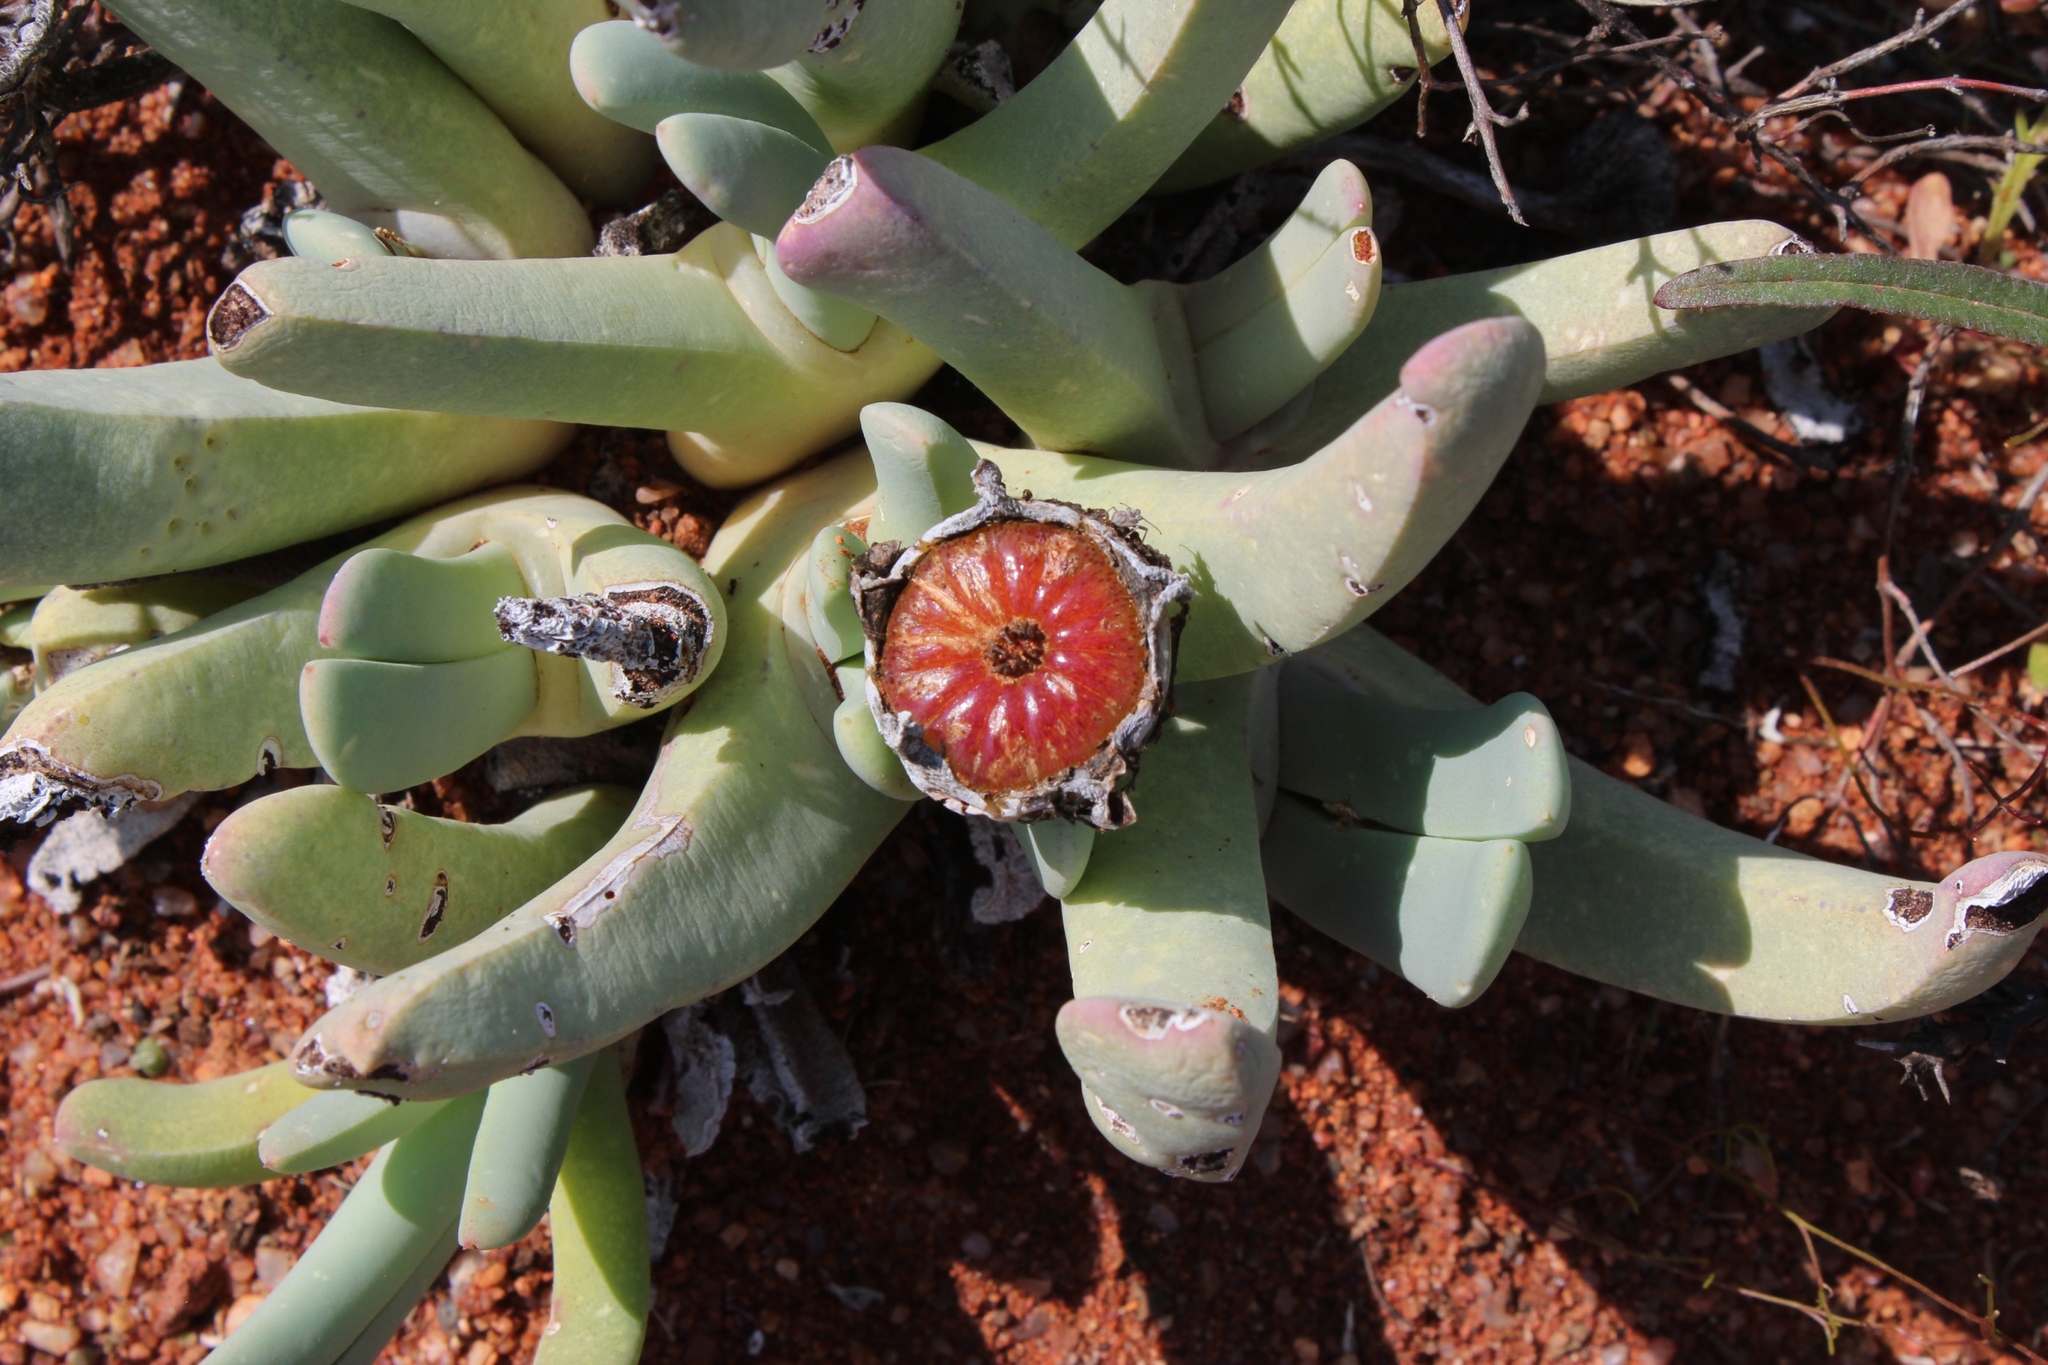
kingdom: Plantae
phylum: Tracheophyta
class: Magnoliopsida
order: Caryophyllales
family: Aizoaceae
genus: Cheiridopsis
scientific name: Cheiridopsis denticulata
